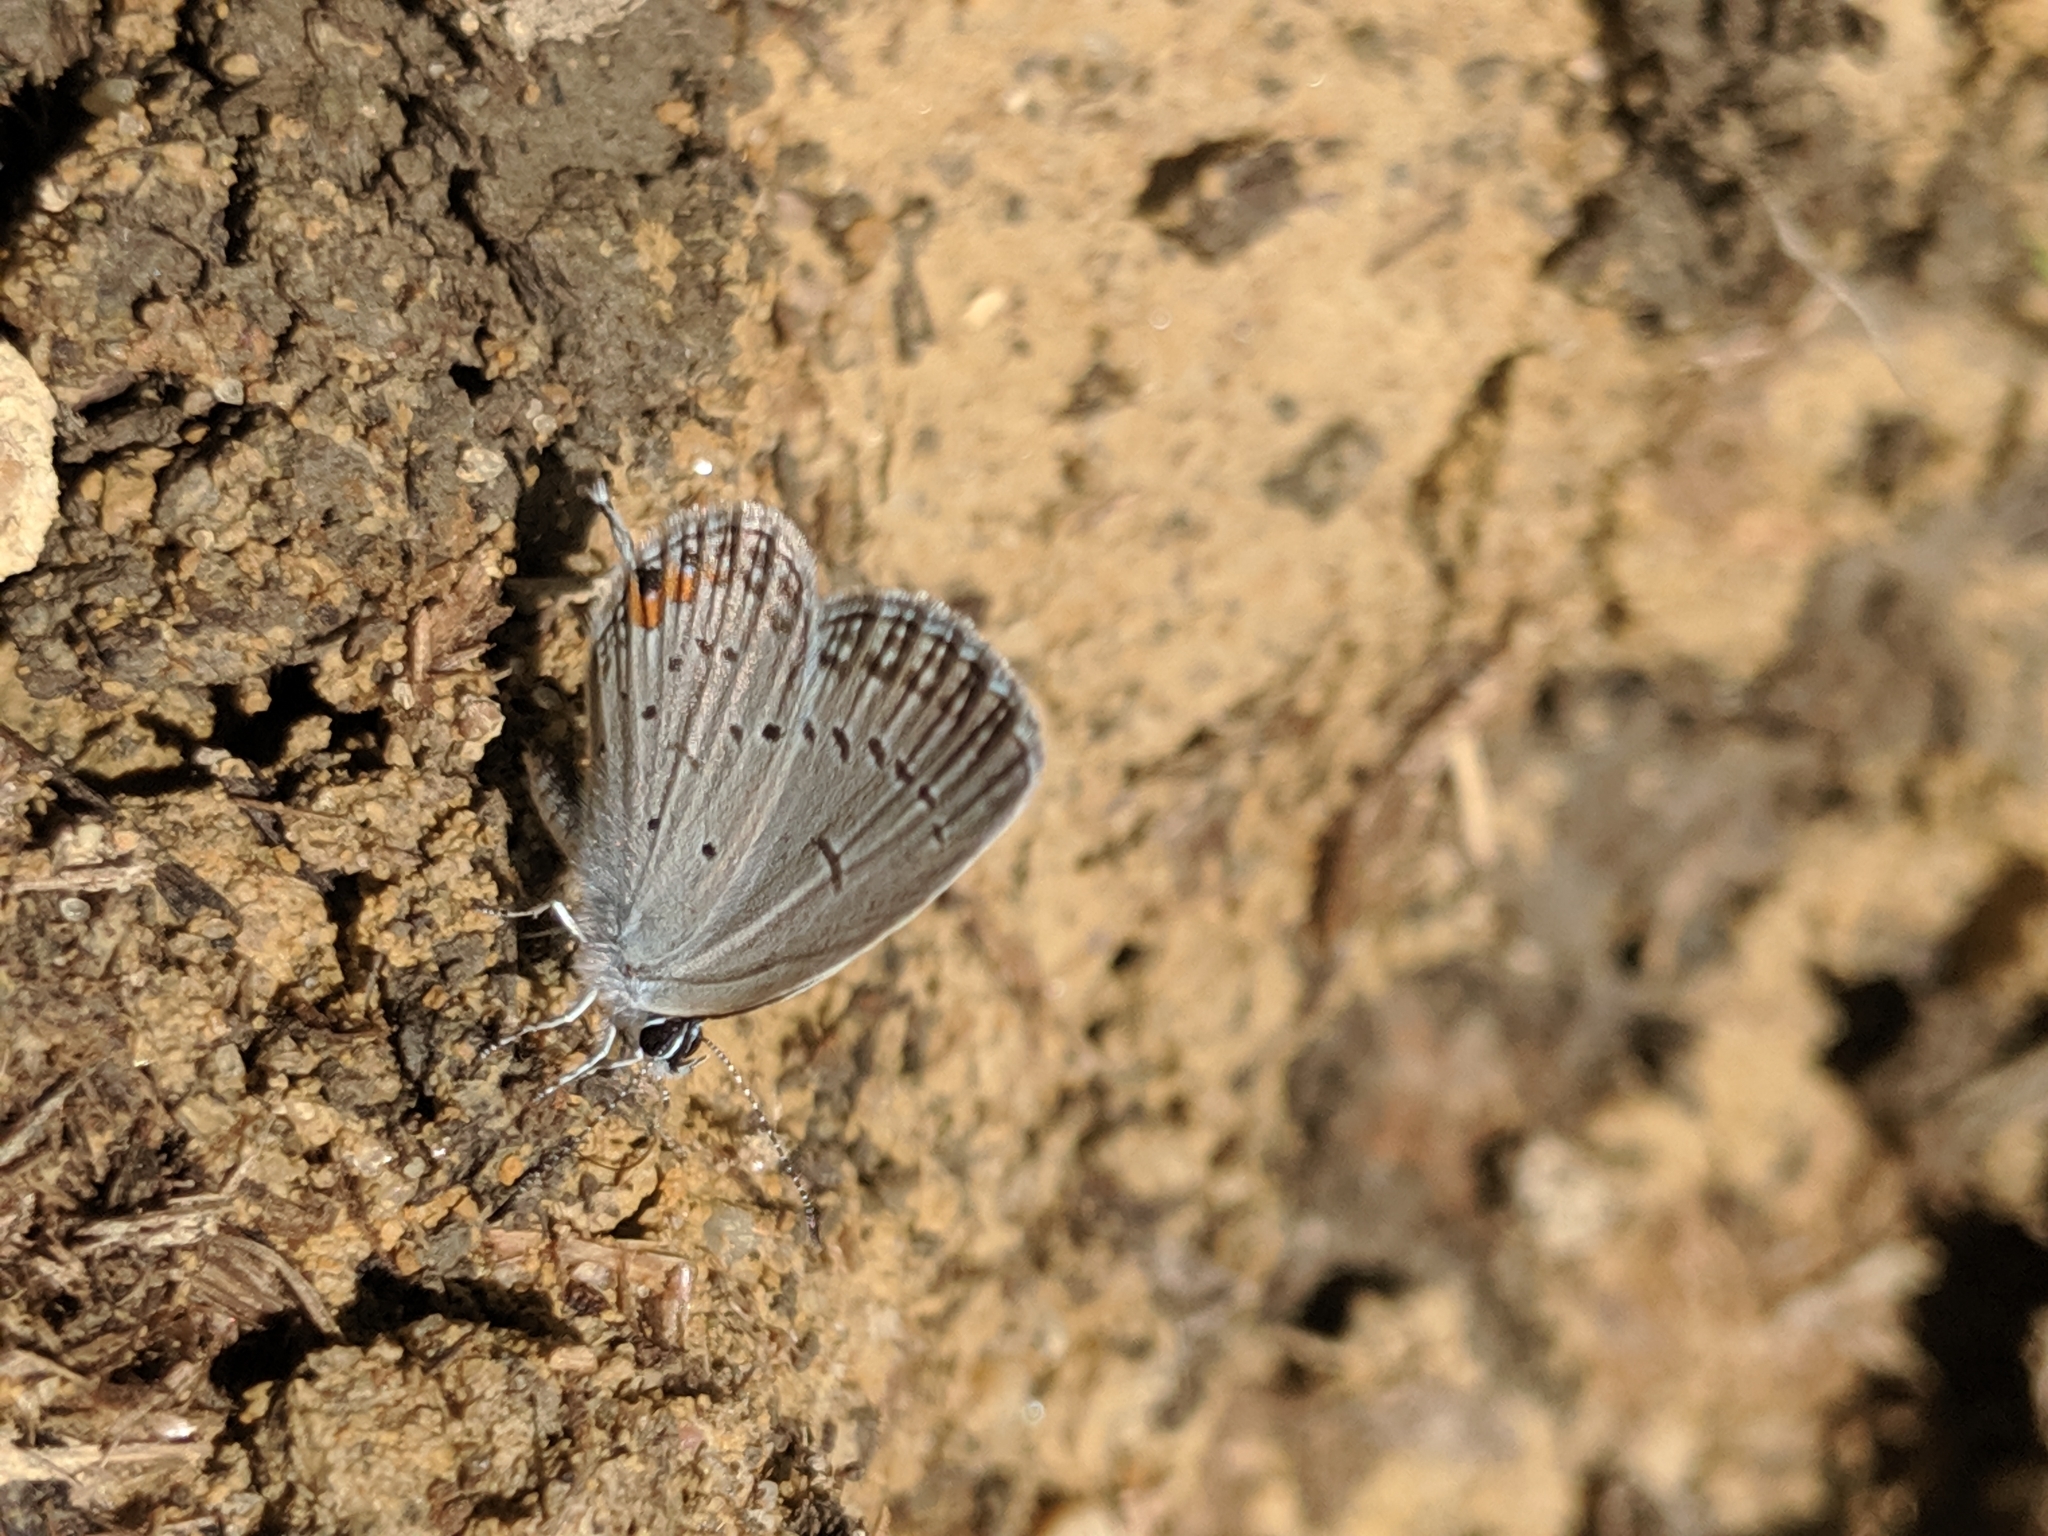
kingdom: Animalia
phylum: Arthropoda
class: Insecta
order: Lepidoptera
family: Lycaenidae
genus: Elkalyce
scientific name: Elkalyce comyntas
